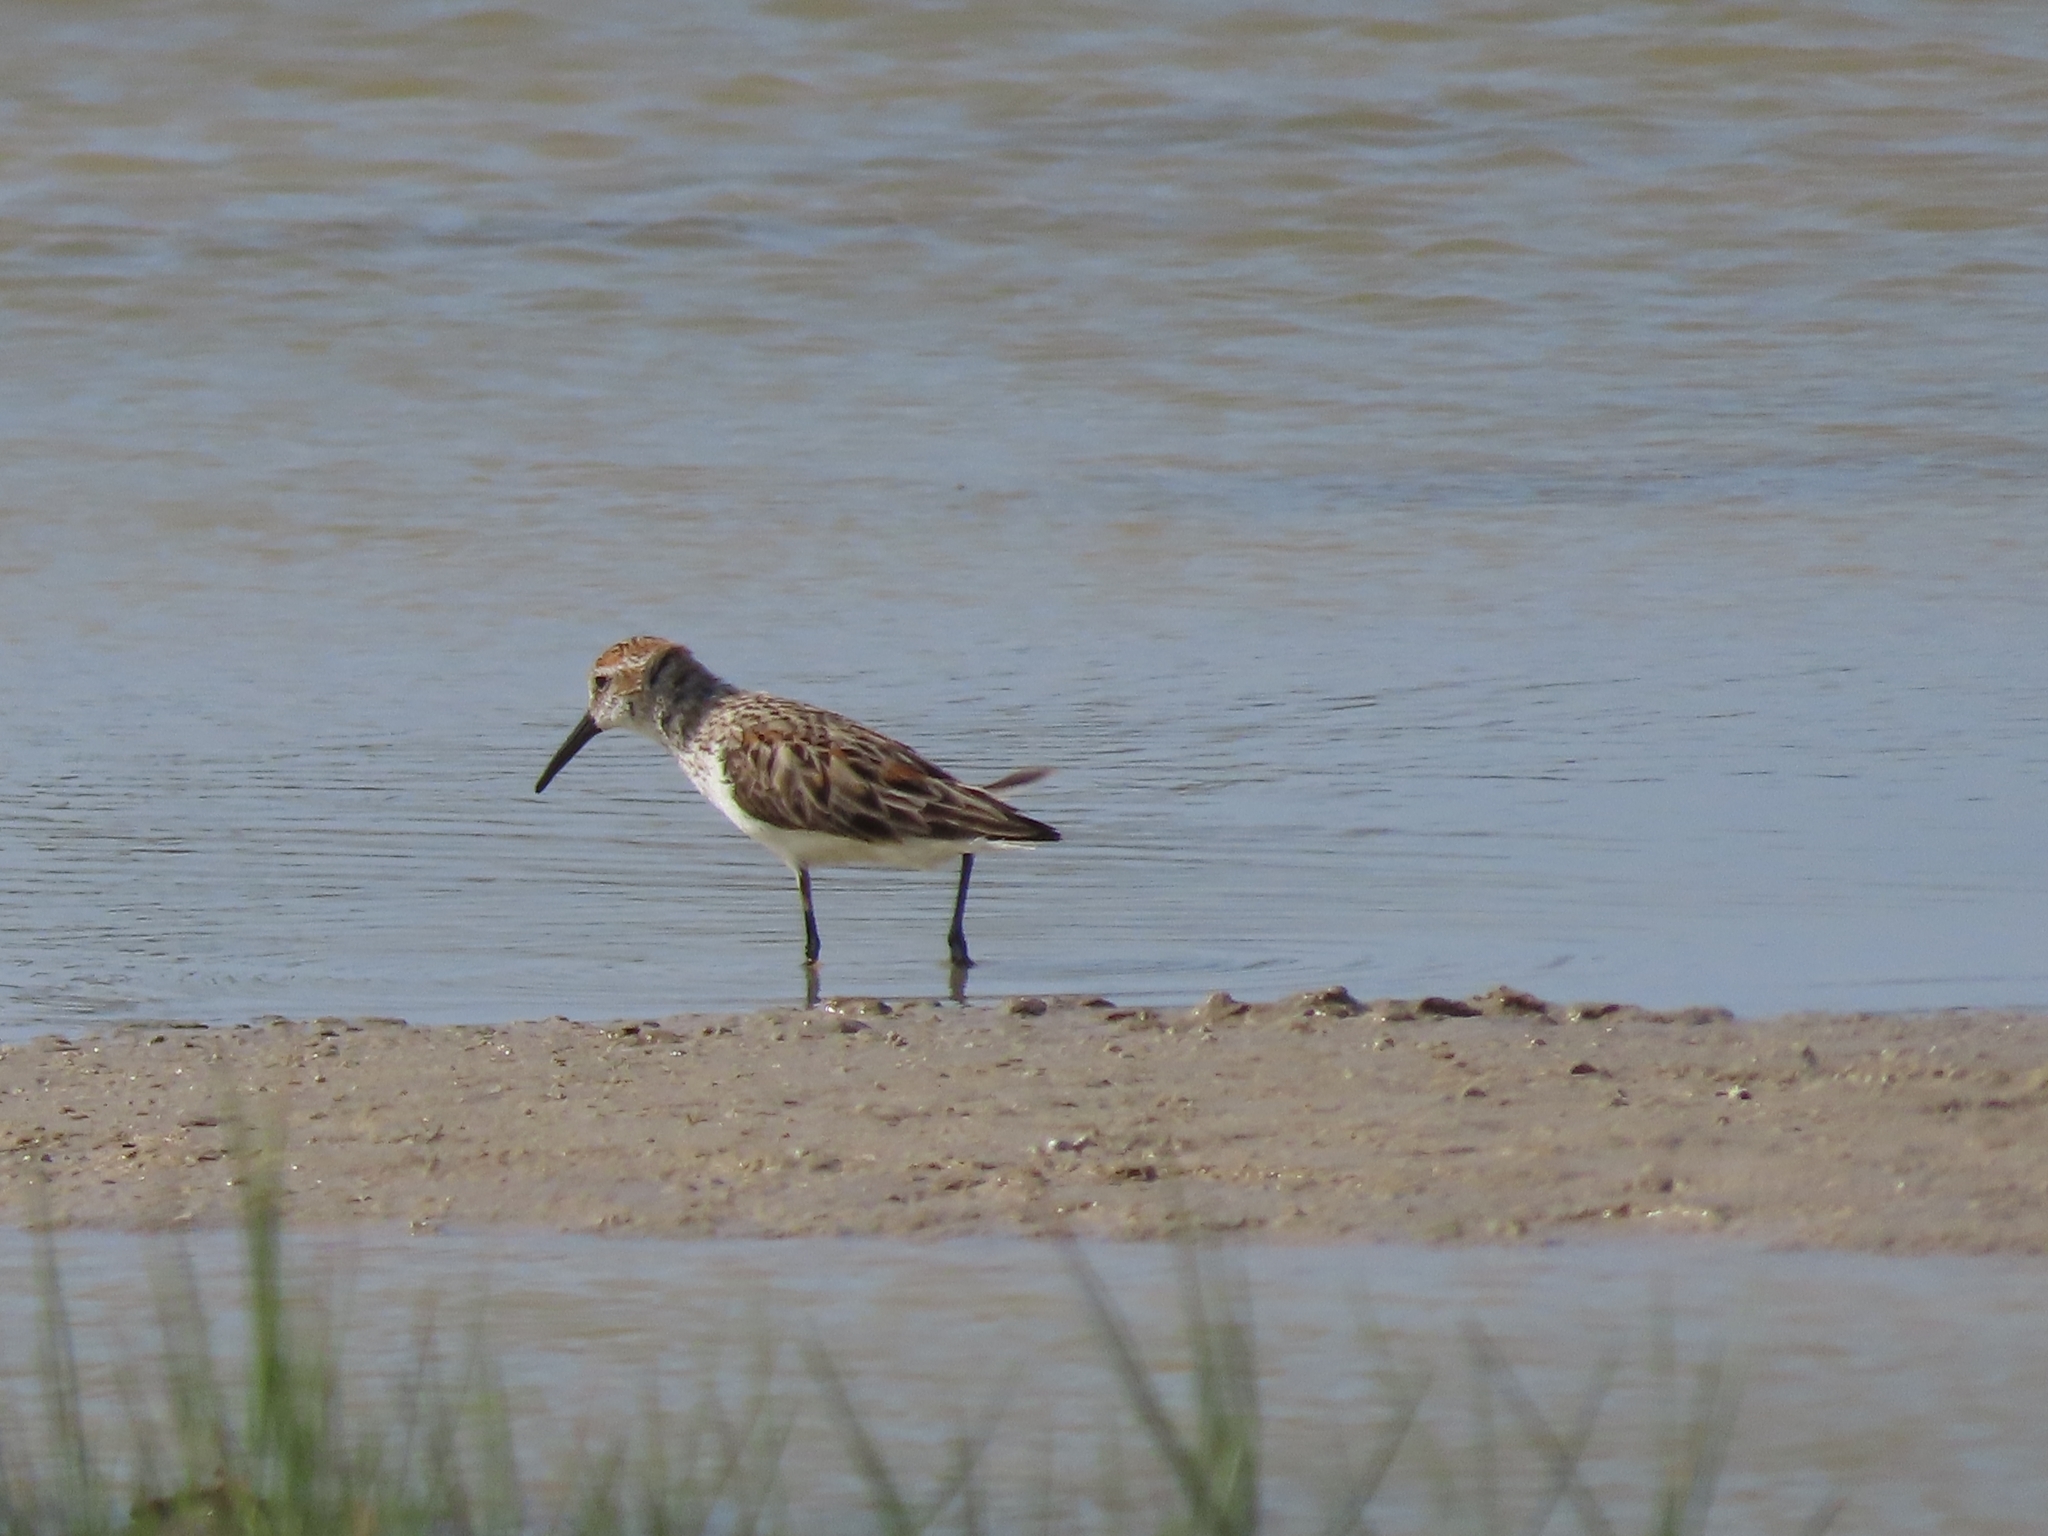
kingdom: Animalia
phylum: Chordata
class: Aves
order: Charadriiformes
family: Scolopacidae
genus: Calidris
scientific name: Calidris mauri
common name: Western sandpiper
